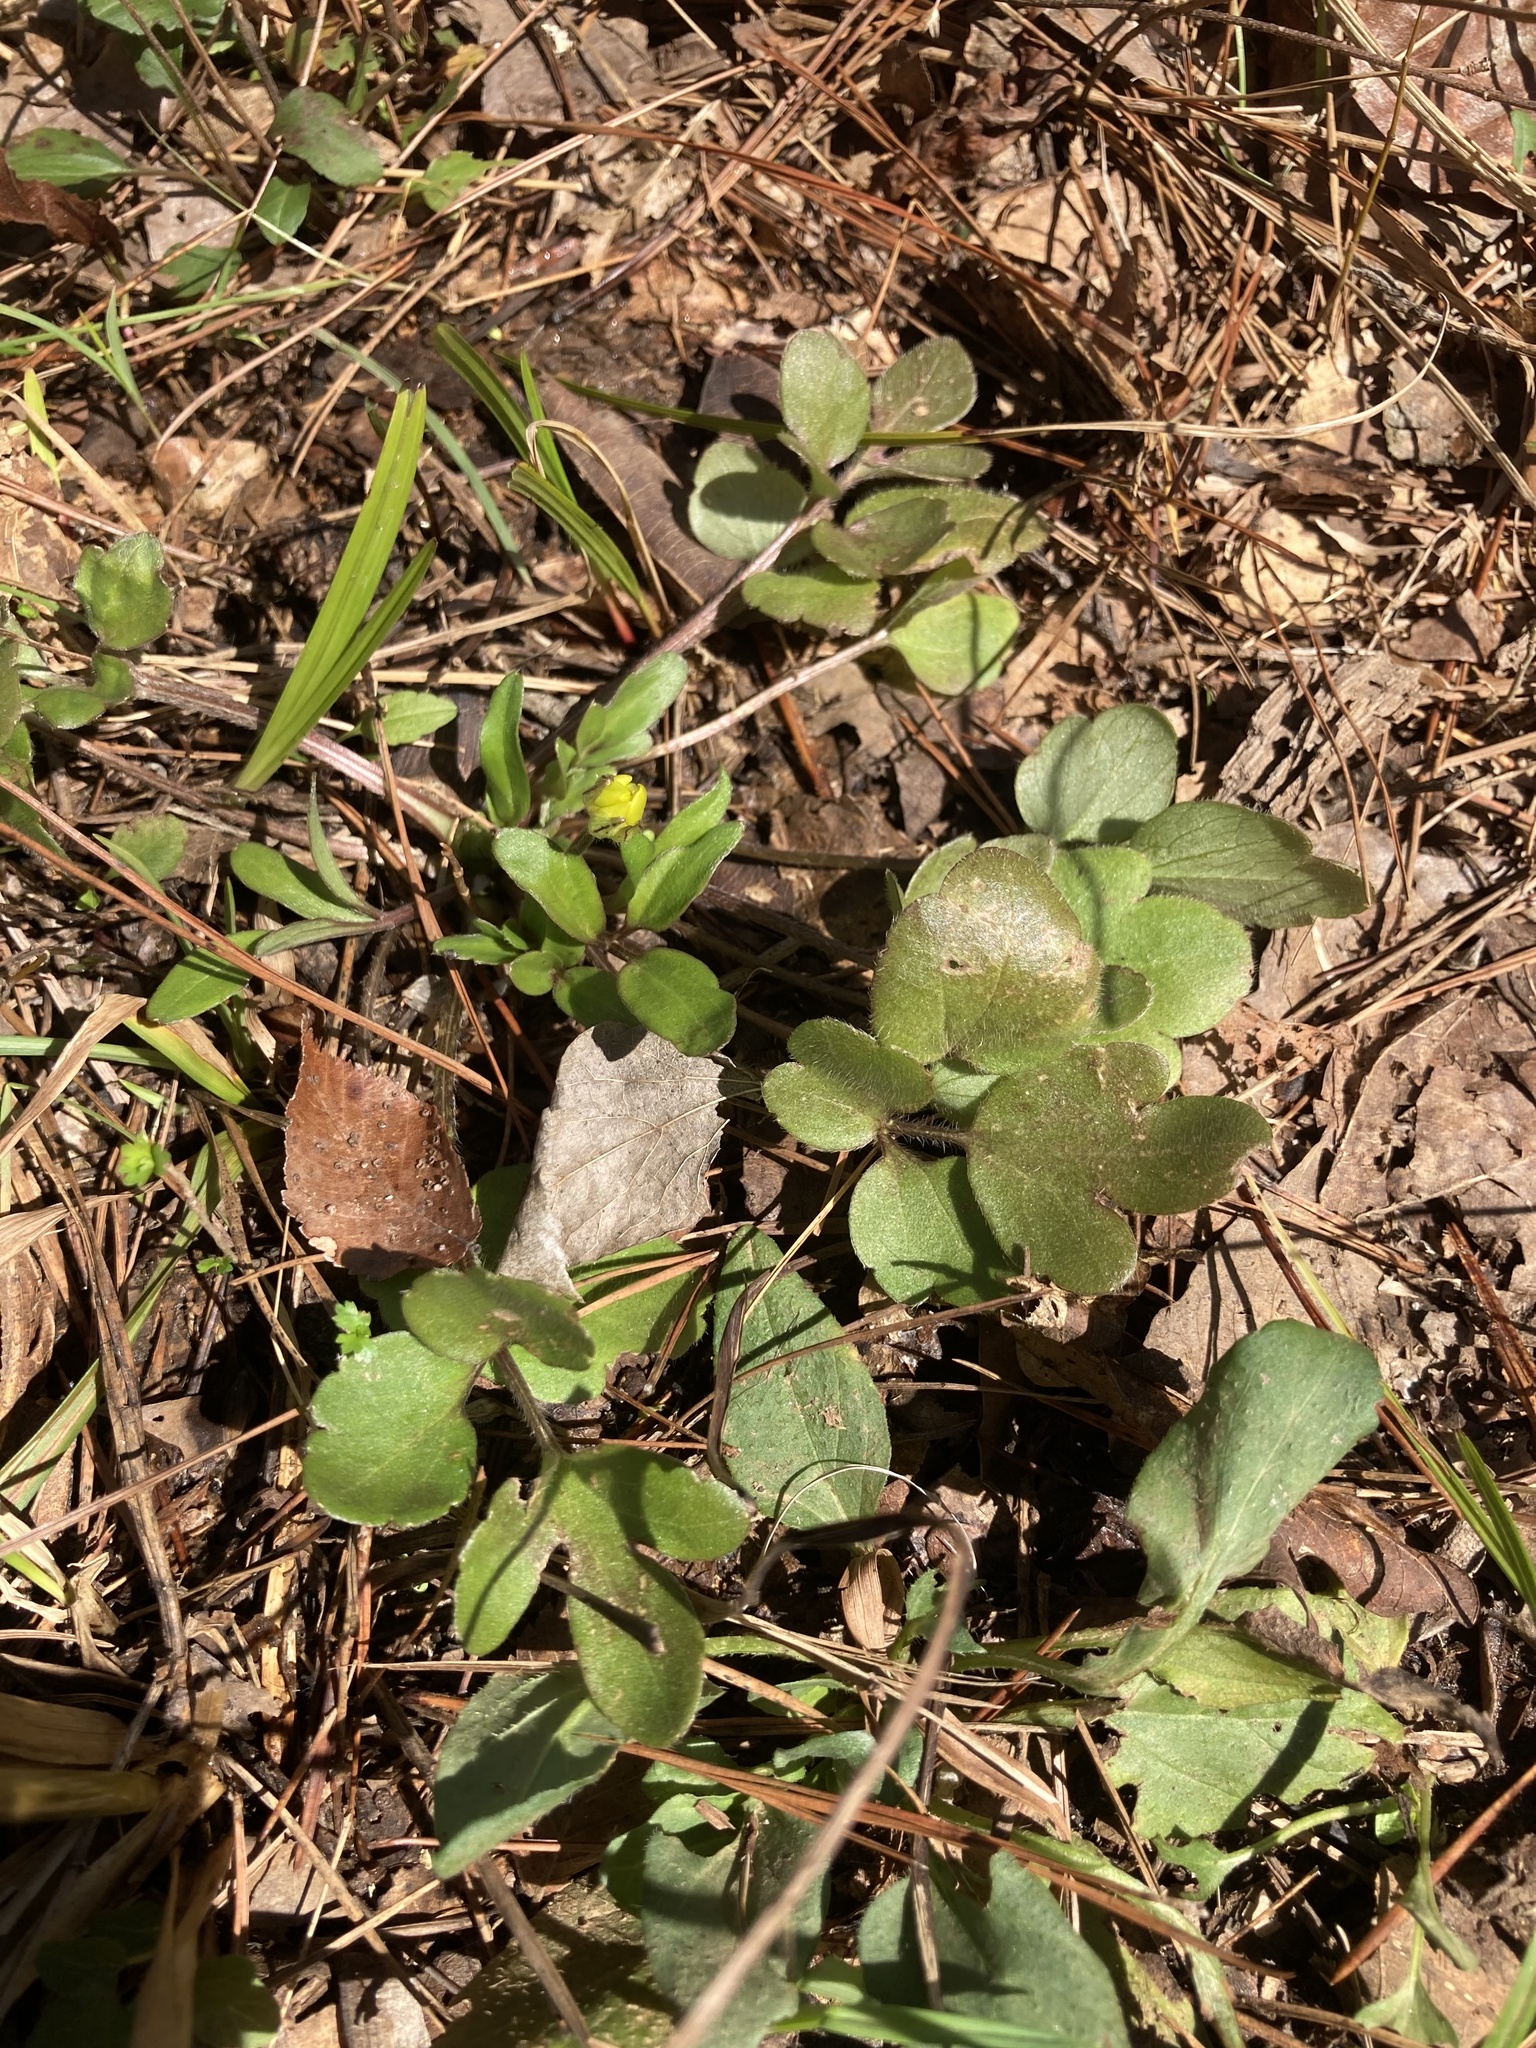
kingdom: Plantae
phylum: Tracheophyta
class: Magnoliopsida
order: Ranunculales
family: Ranunculaceae
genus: Ranunculus
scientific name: Ranunculus fascicularis
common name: Early buttercup
